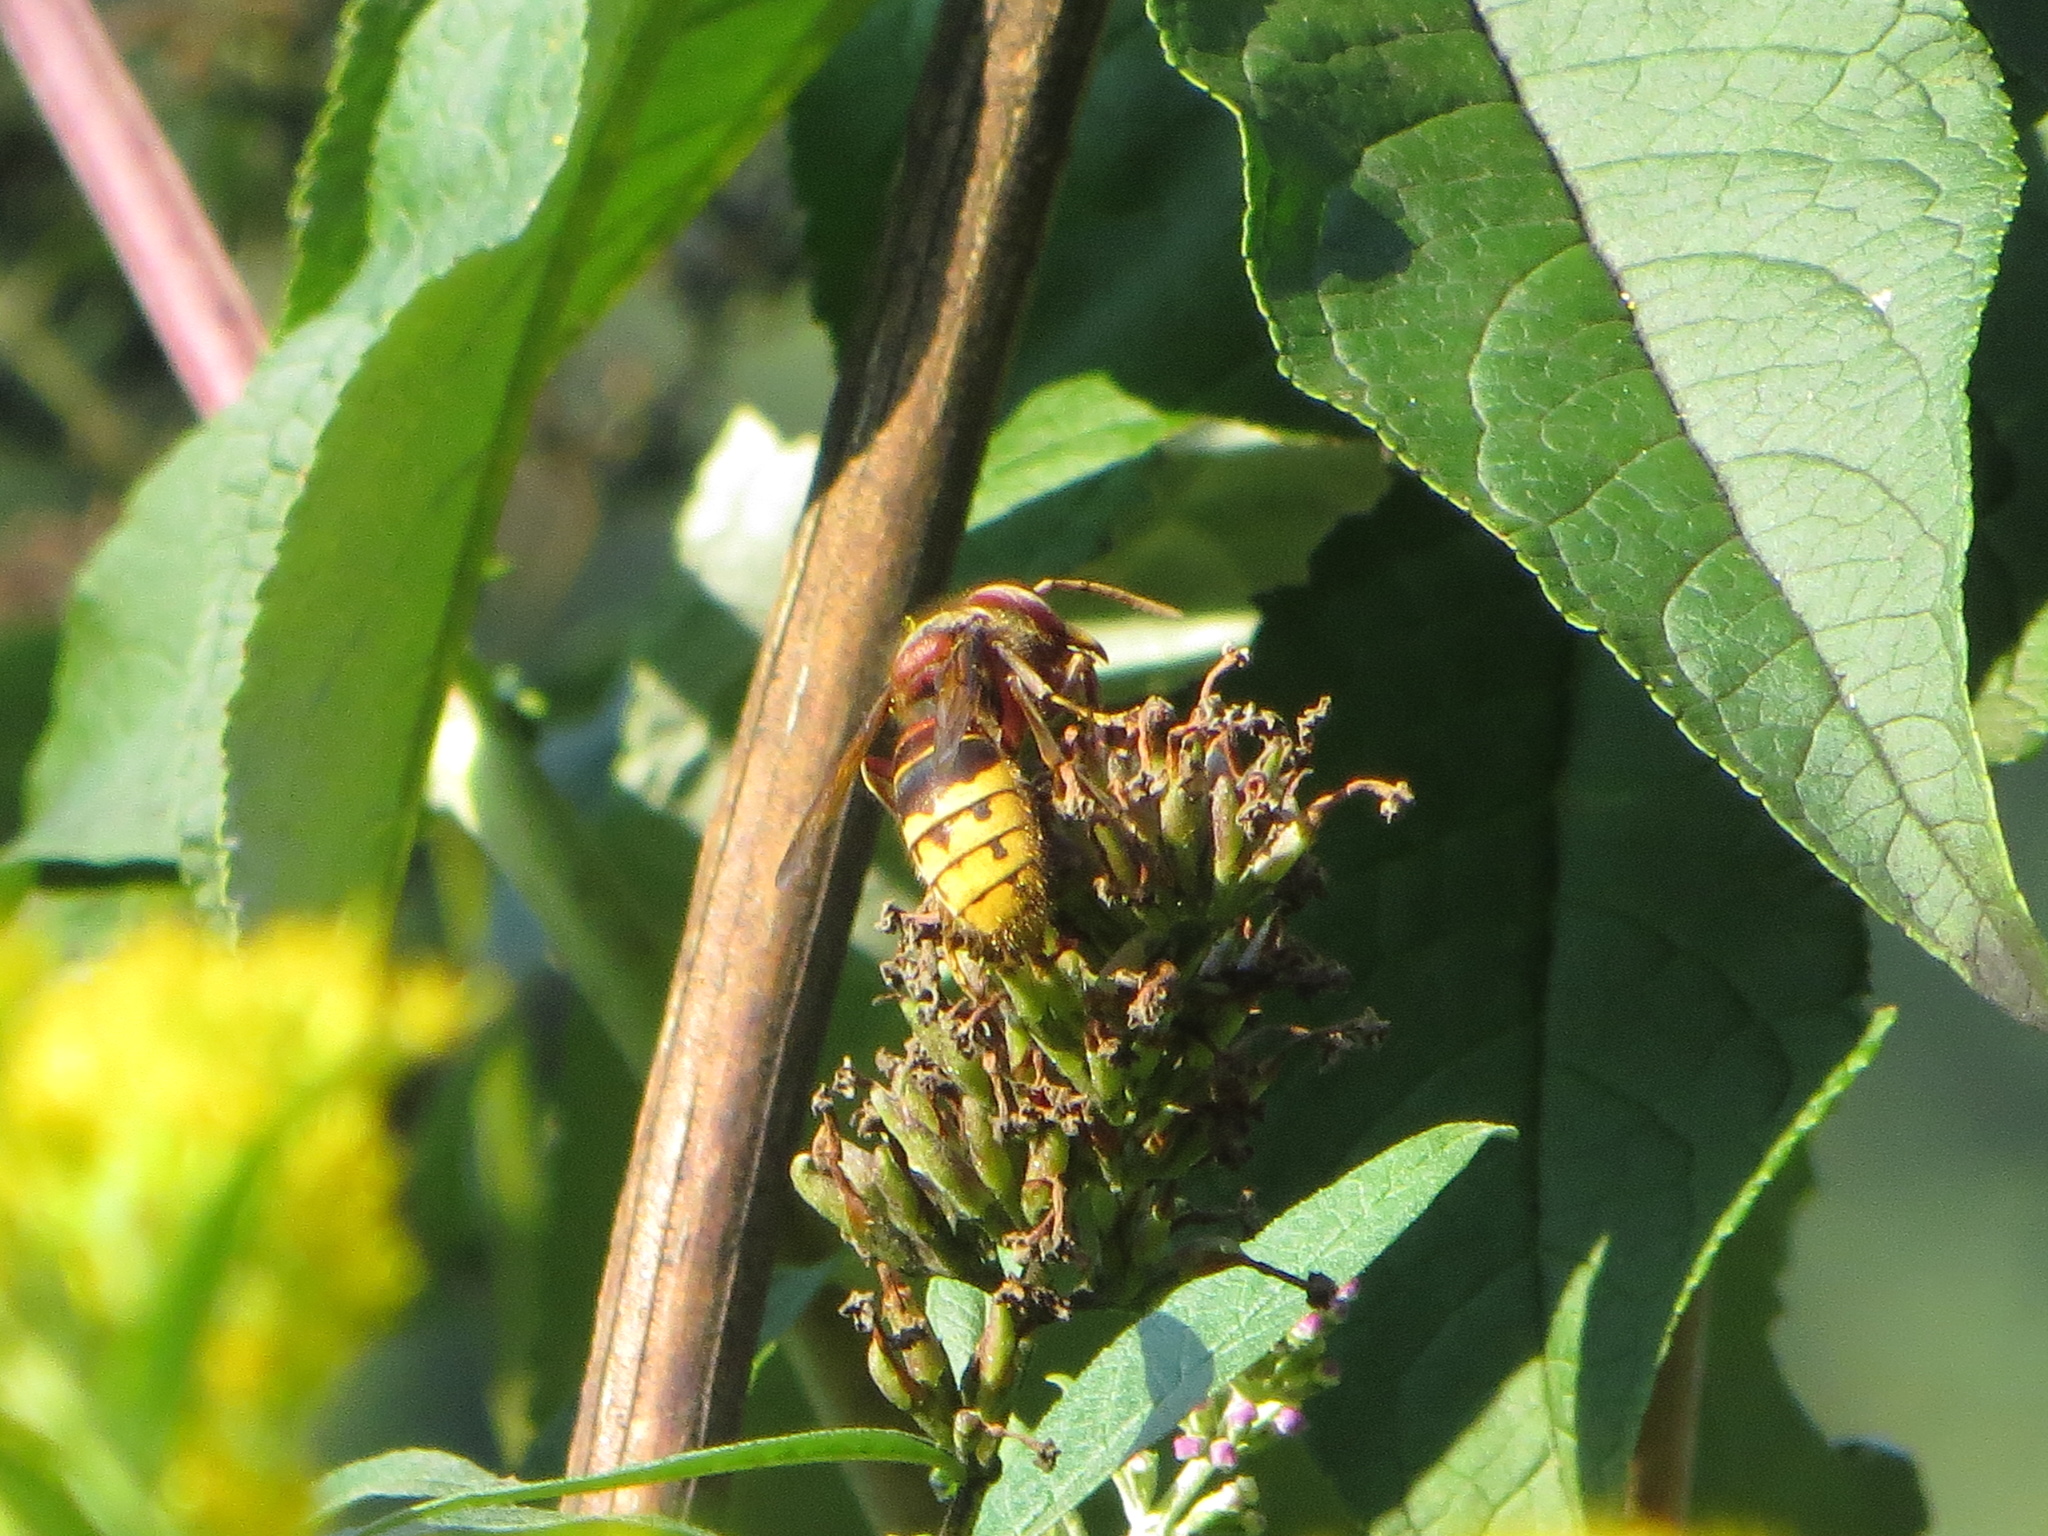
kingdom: Animalia
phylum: Arthropoda
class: Insecta
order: Hymenoptera
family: Vespidae
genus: Vespa
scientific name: Vespa crabro
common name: Hornet
